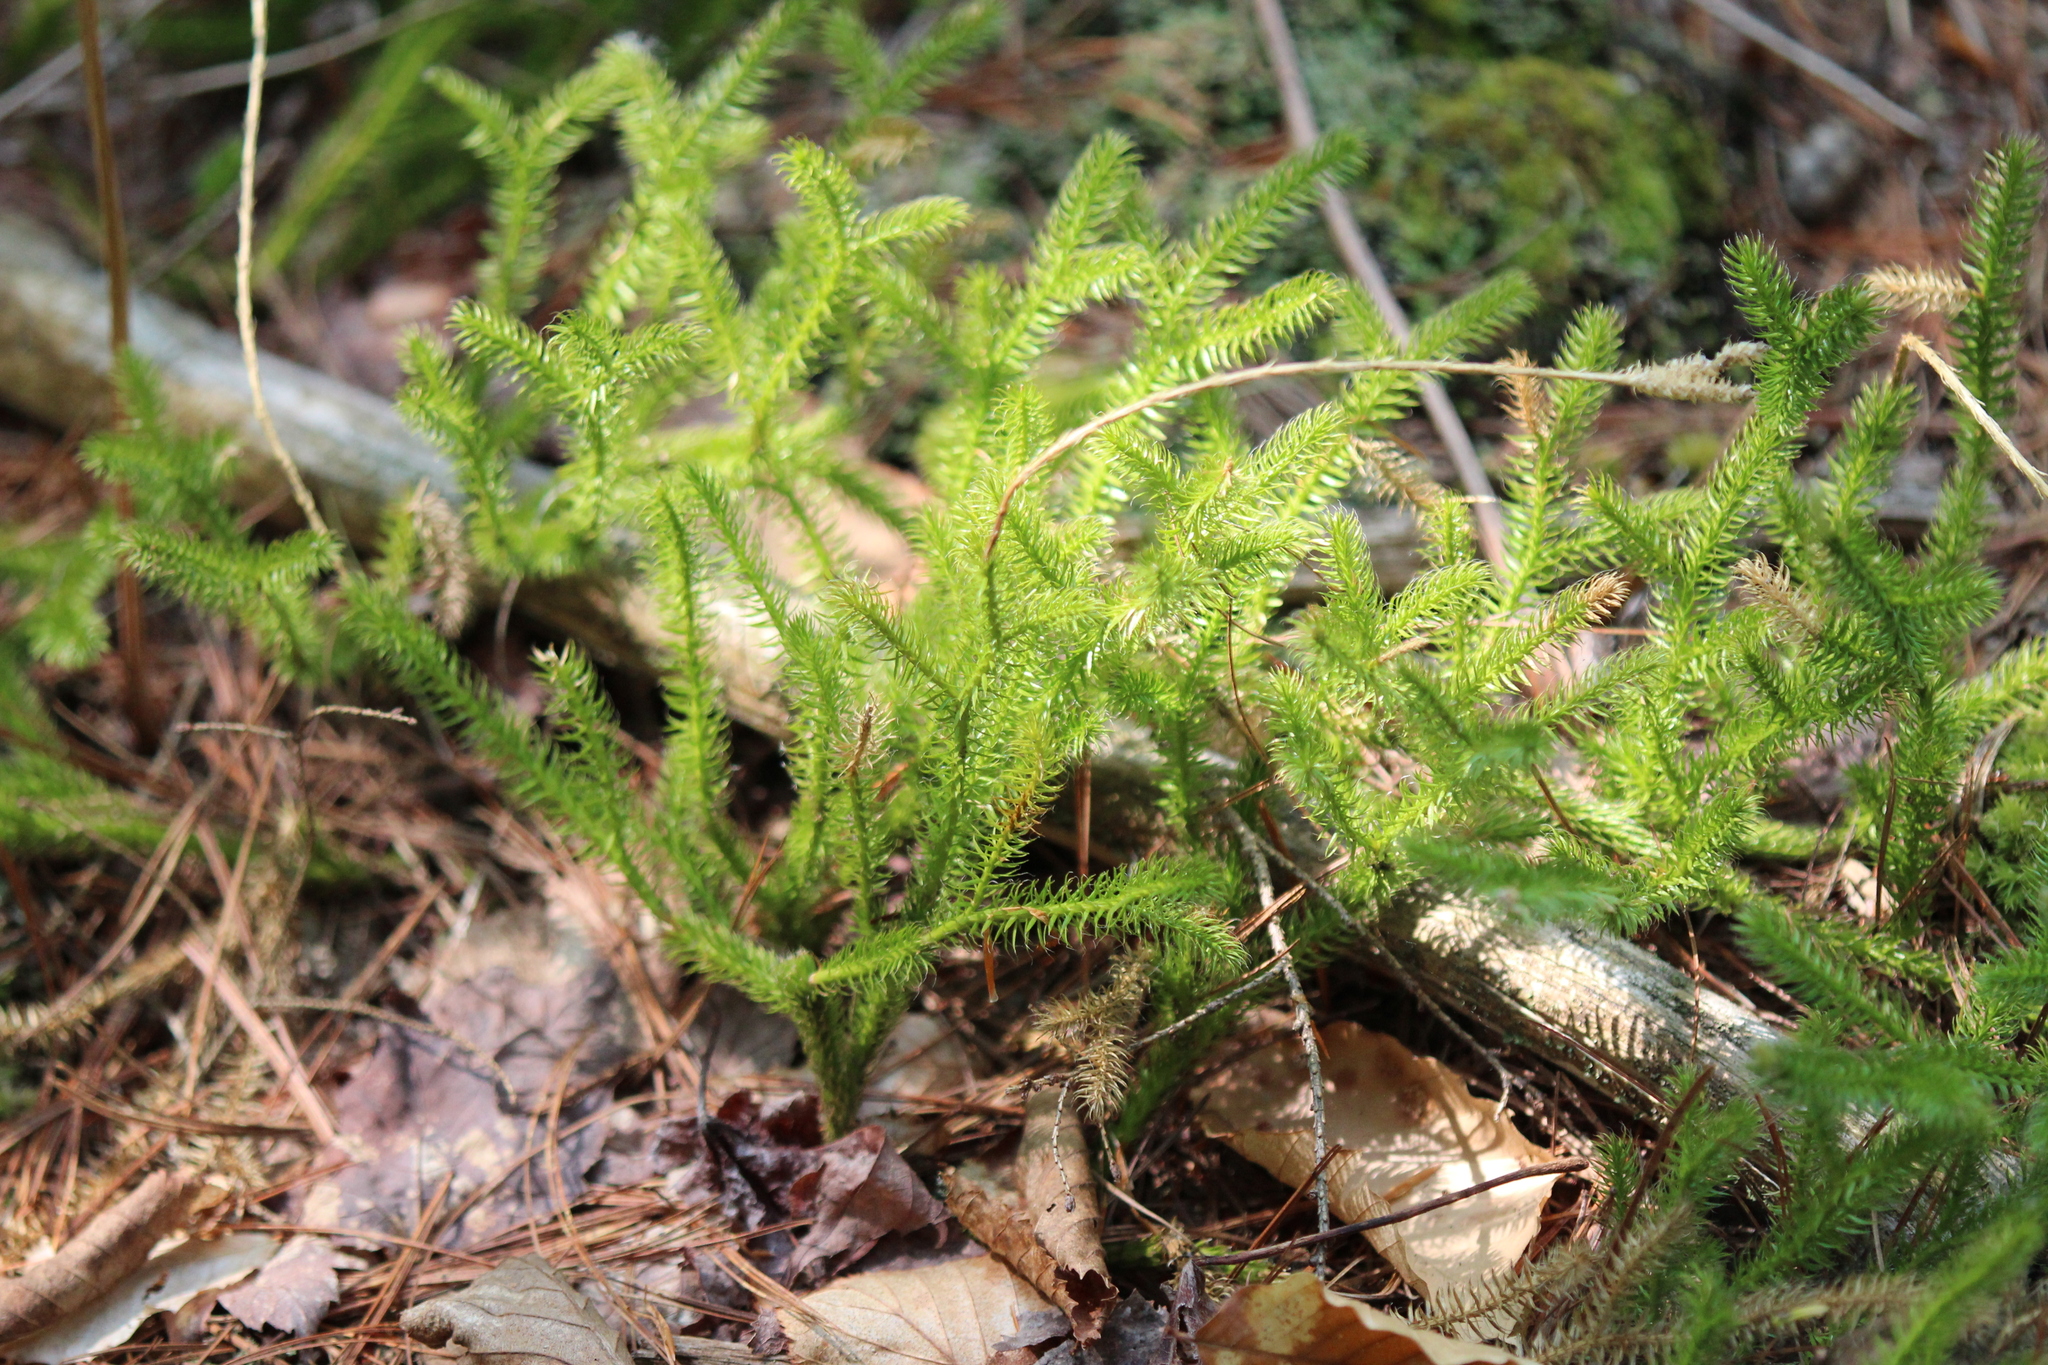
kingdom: Plantae
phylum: Tracheophyta
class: Lycopodiopsida
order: Lycopodiales
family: Lycopodiaceae
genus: Lycopodium
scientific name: Lycopodium clavatum
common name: Stag's-horn clubmoss
